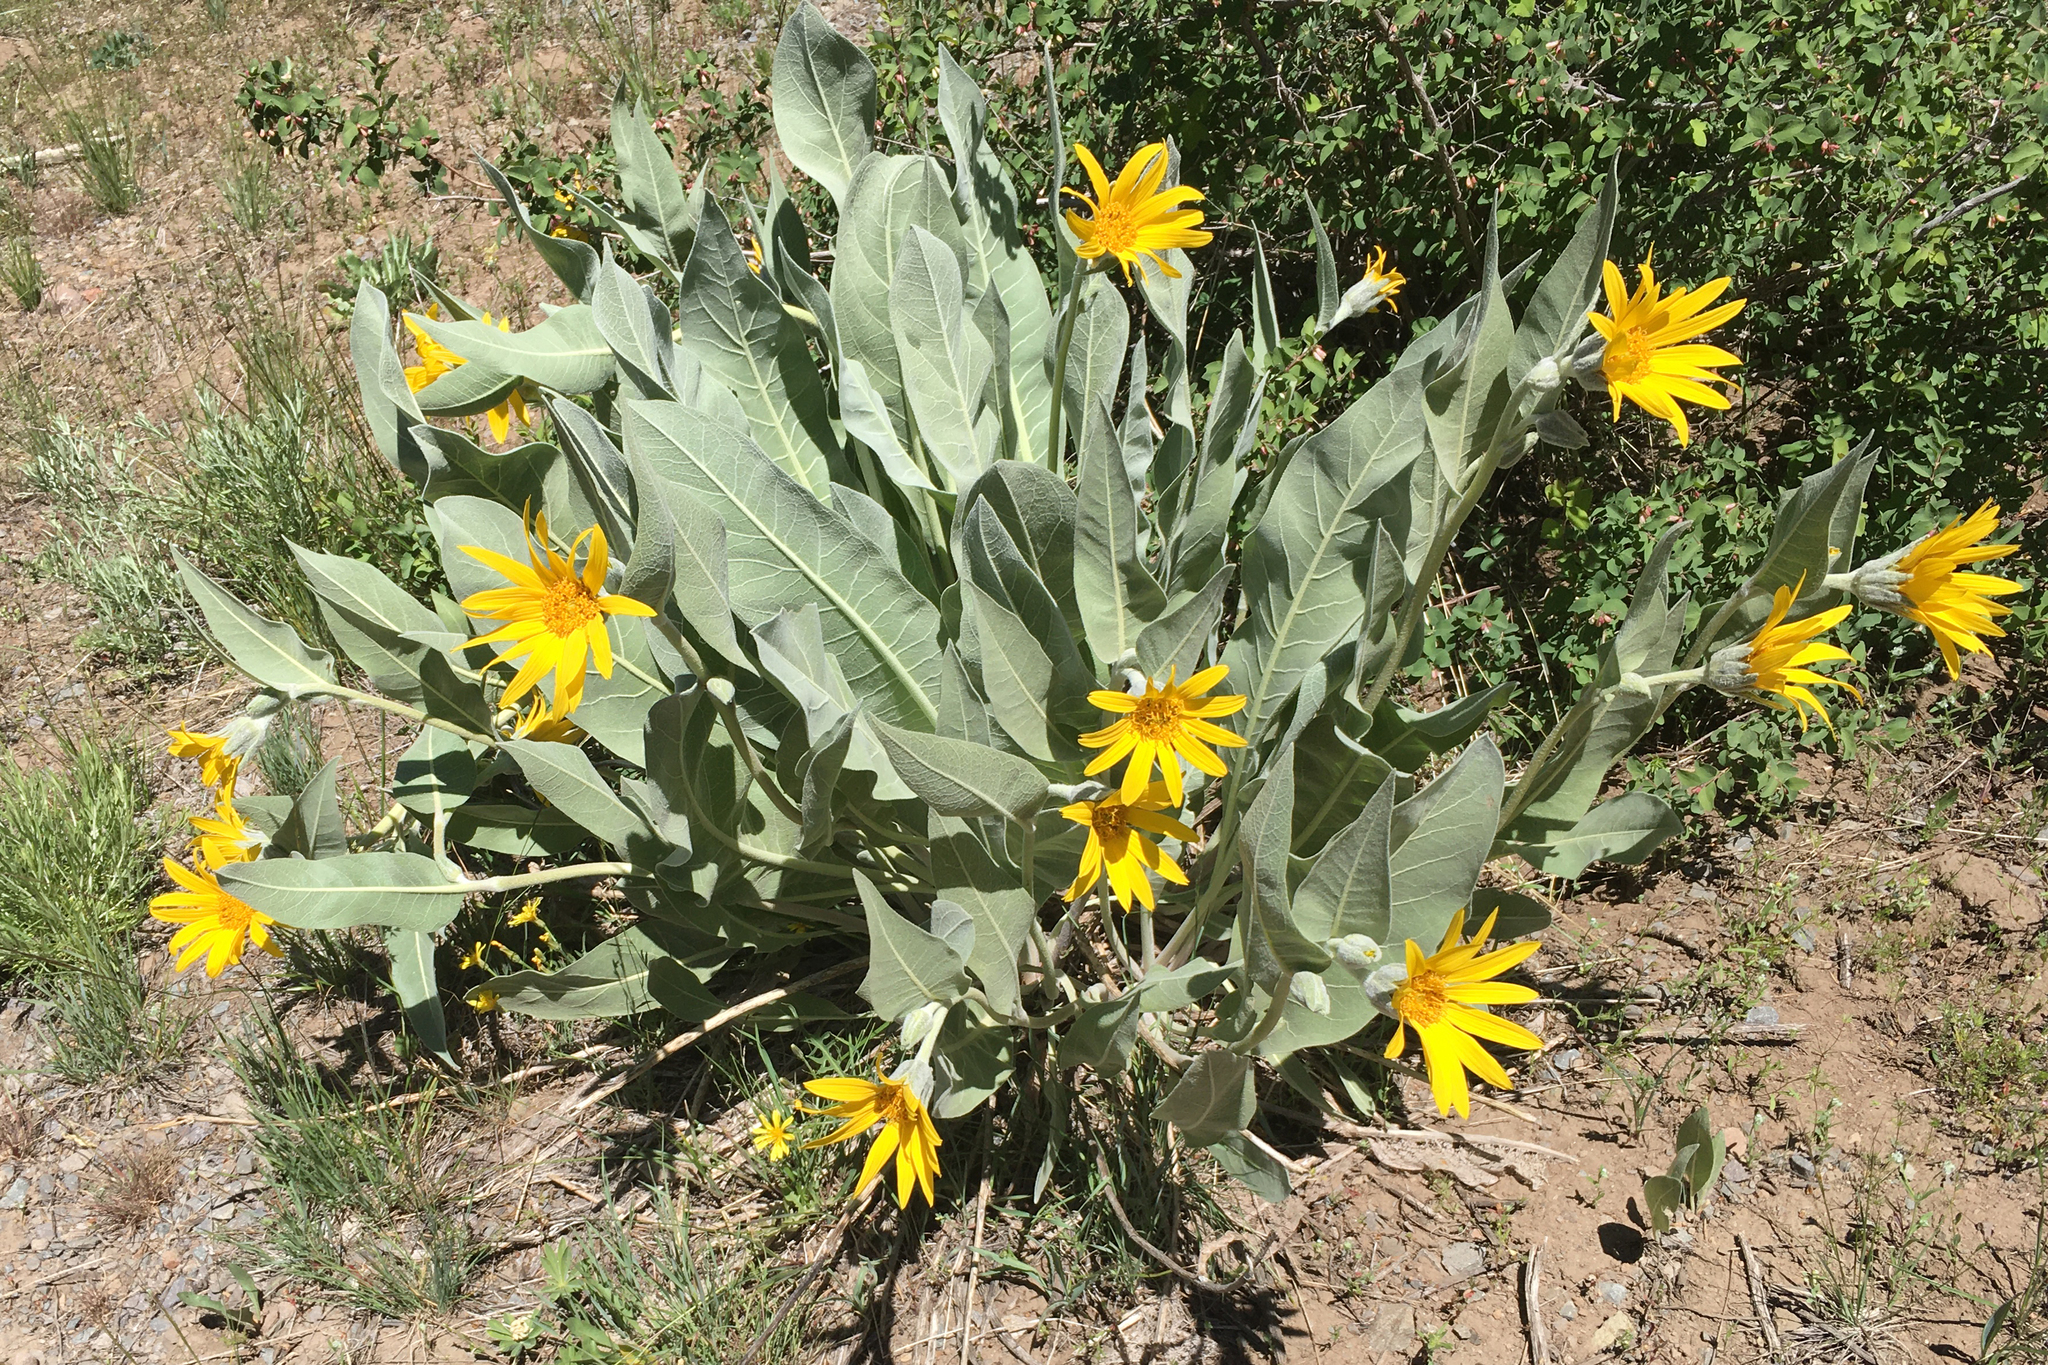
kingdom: Plantae
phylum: Tracheophyta
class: Magnoliopsida
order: Asterales
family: Asteraceae
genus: Wyethia
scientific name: Wyethia mollis
